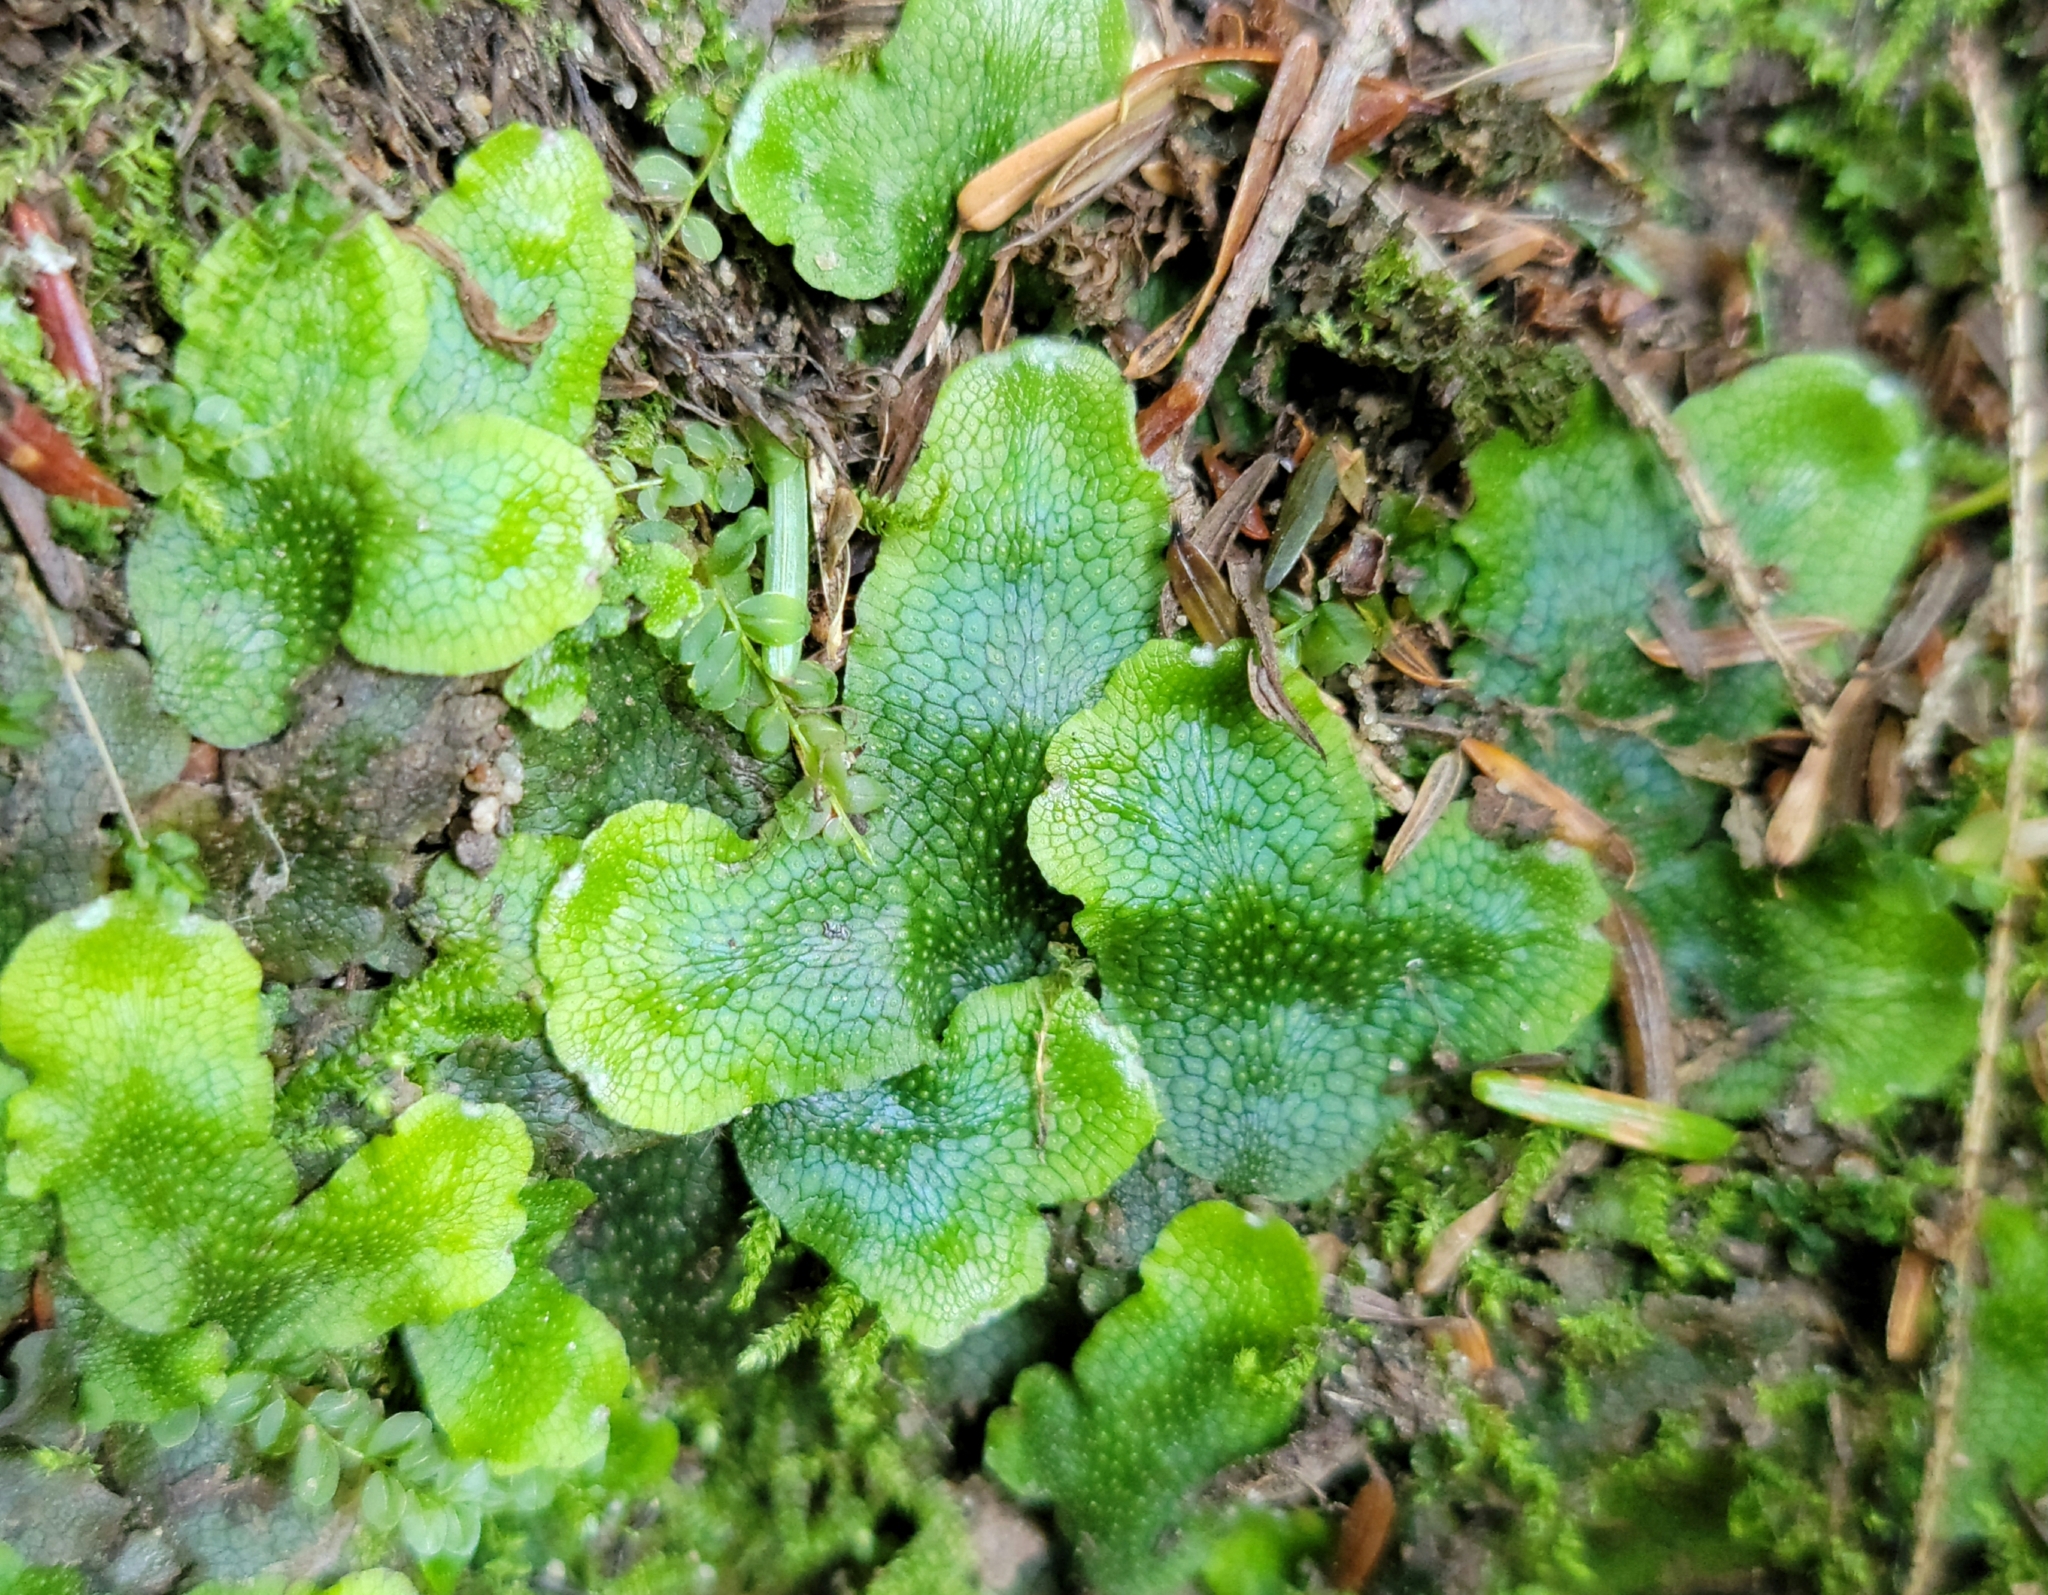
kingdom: Plantae
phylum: Marchantiophyta
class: Marchantiopsida
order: Marchantiales
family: Conocephalaceae
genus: Conocephalum
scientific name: Conocephalum salebrosum
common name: Cat-tongue liverwort
